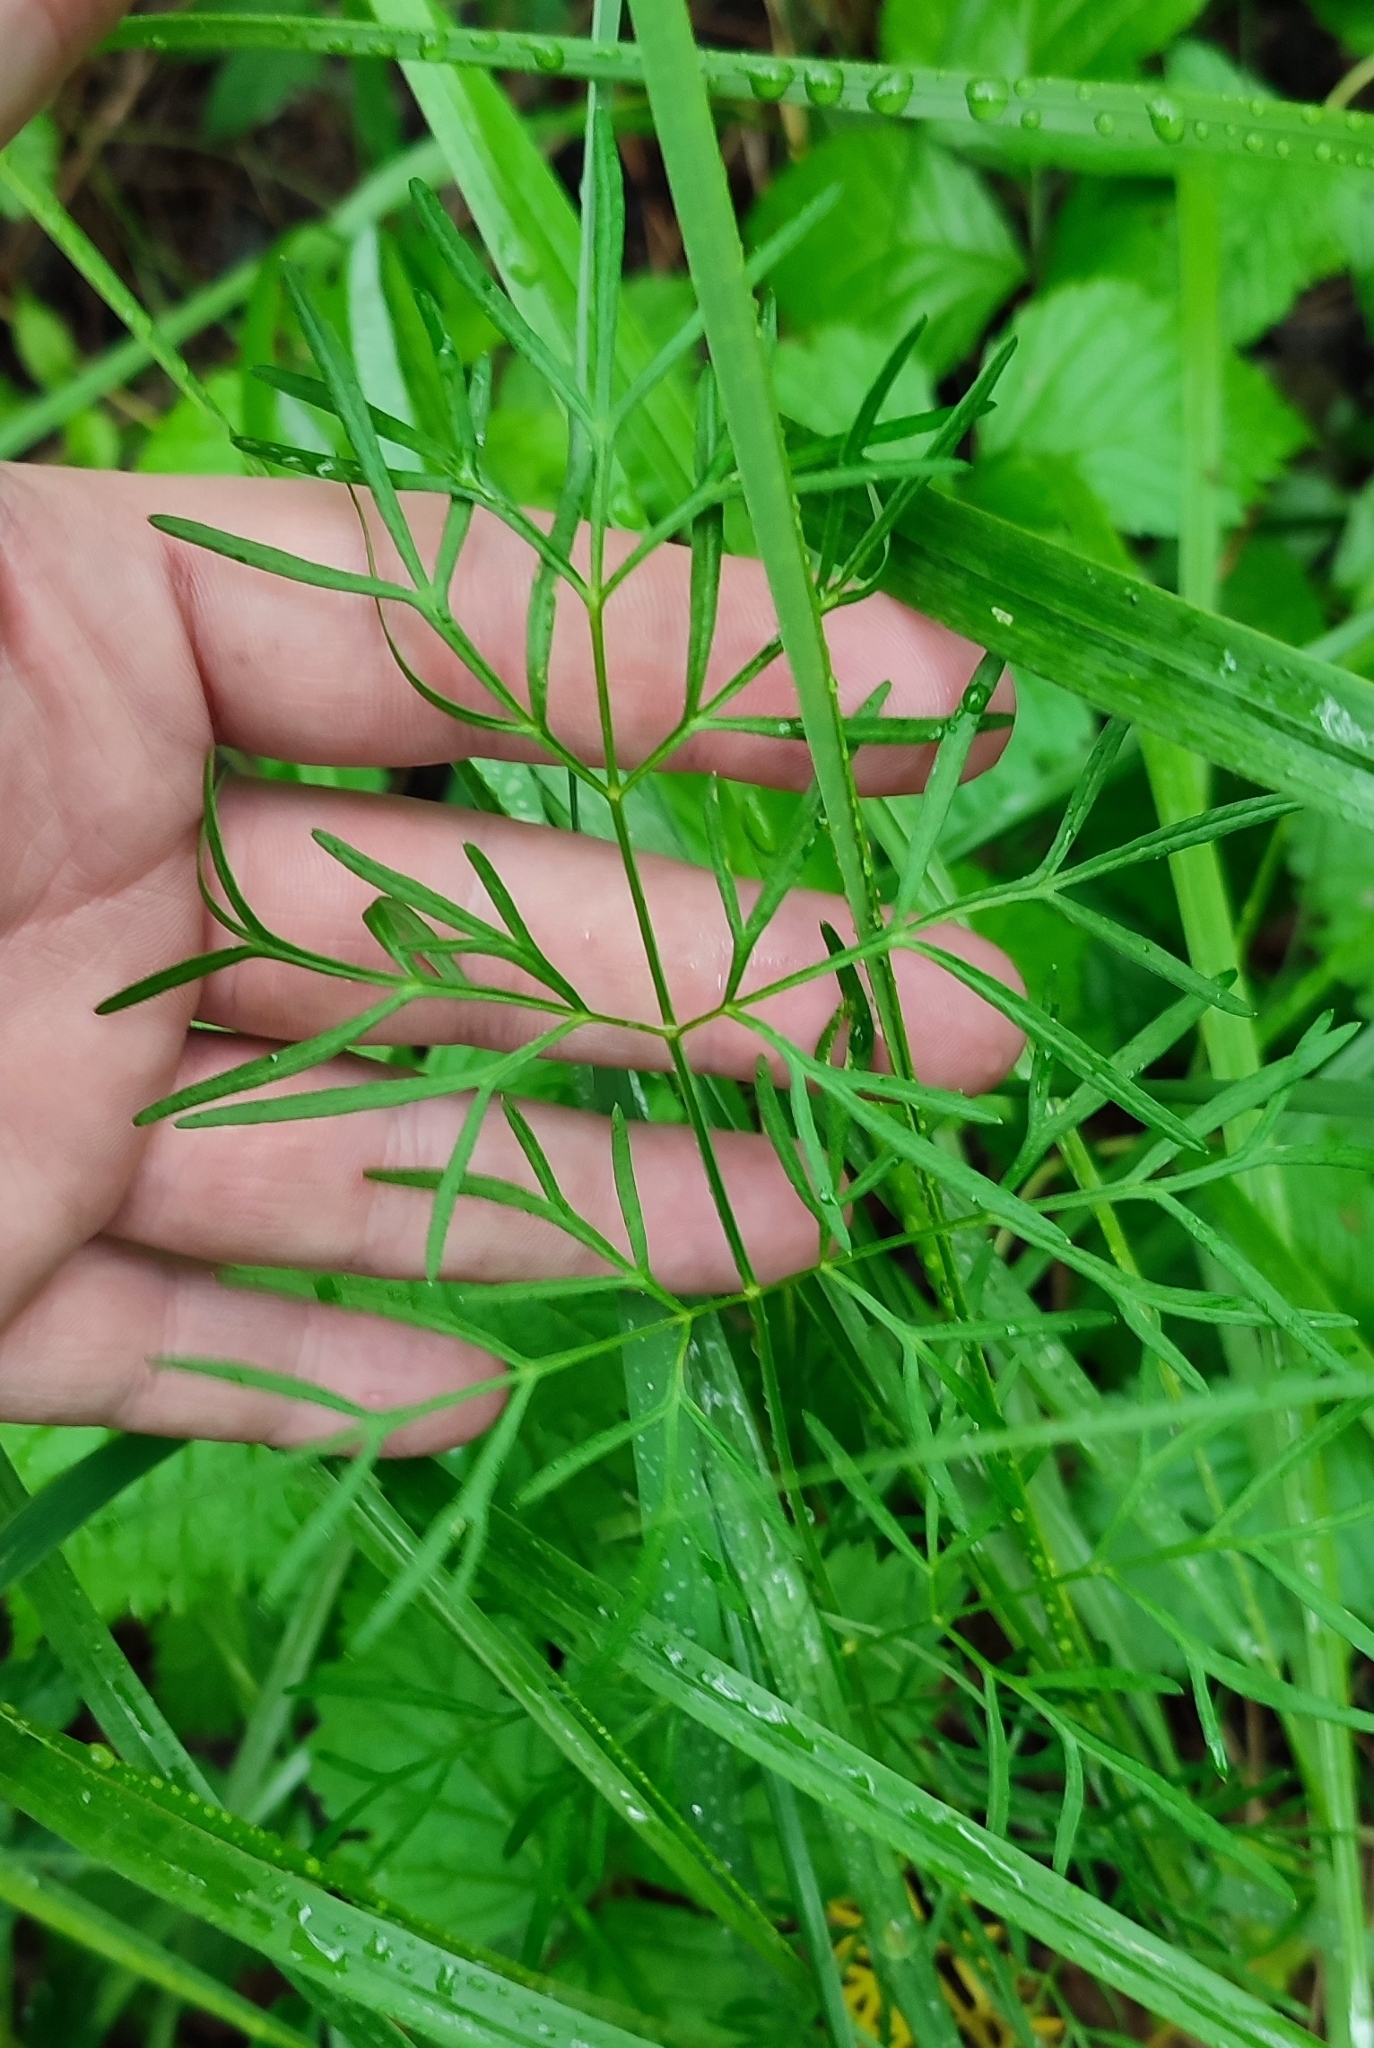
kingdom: Plantae
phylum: Tracheophyta
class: Magnoliopsida
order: Apiales
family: Apiaceae
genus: Kadenia
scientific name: Kadenia dubia
